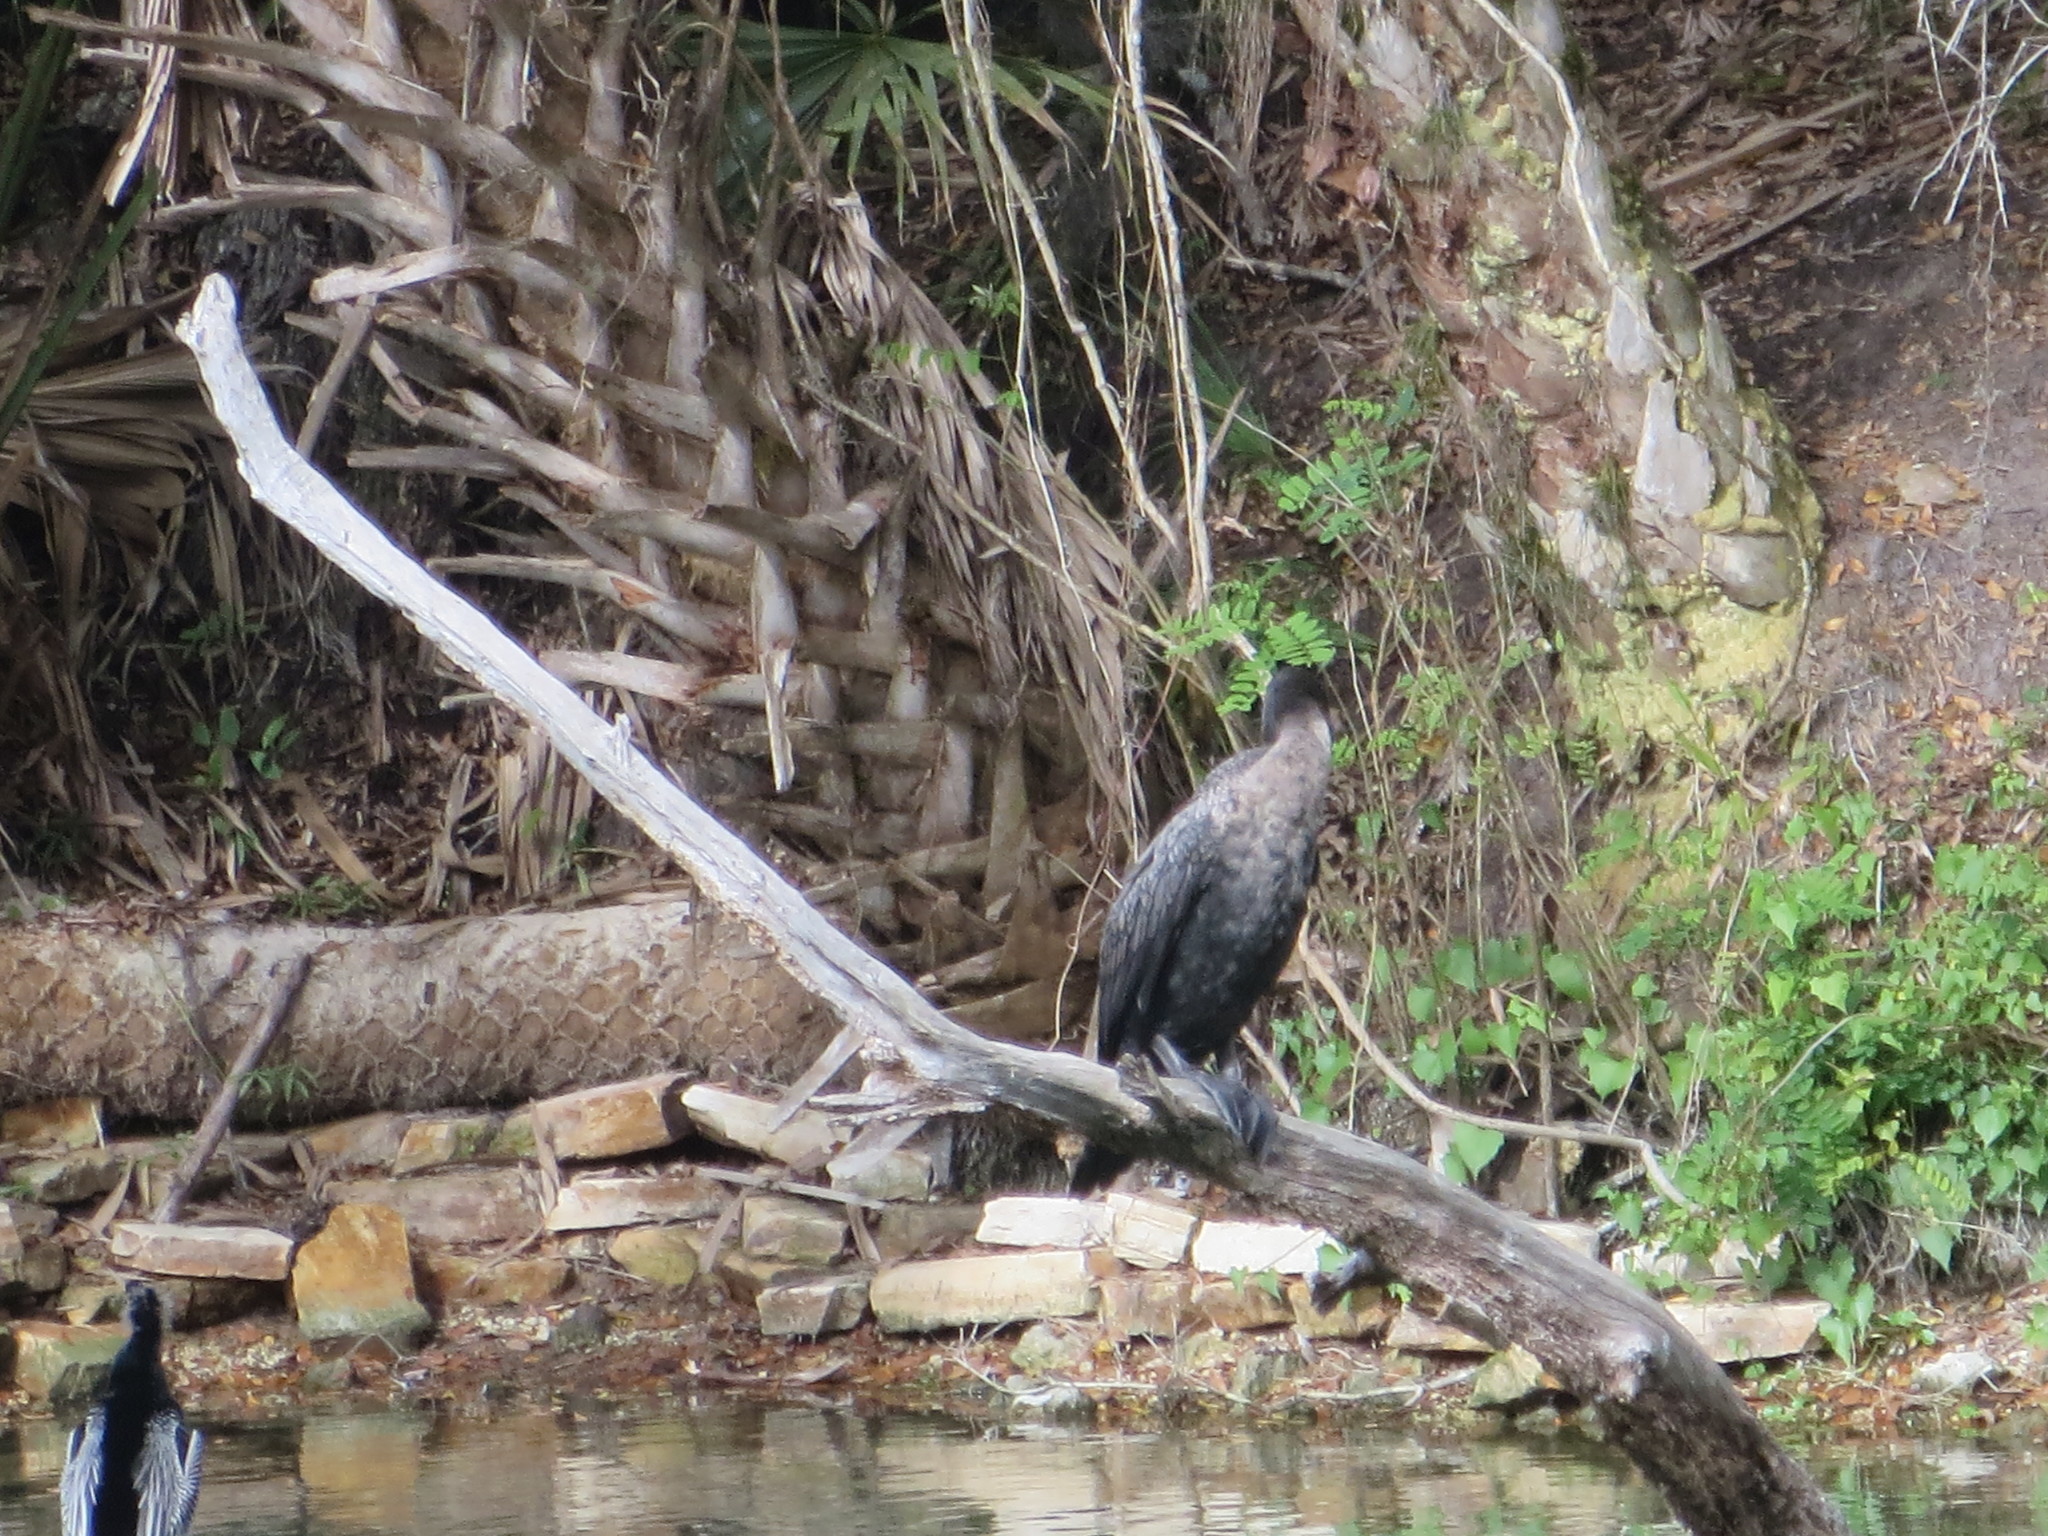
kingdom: Animalia
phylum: Chordata
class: Aves
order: Suliformes
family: Phalacrocoracidae
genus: Phalacrocorax
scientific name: Phalacrocorax auritus
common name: Double-crested cormorant
